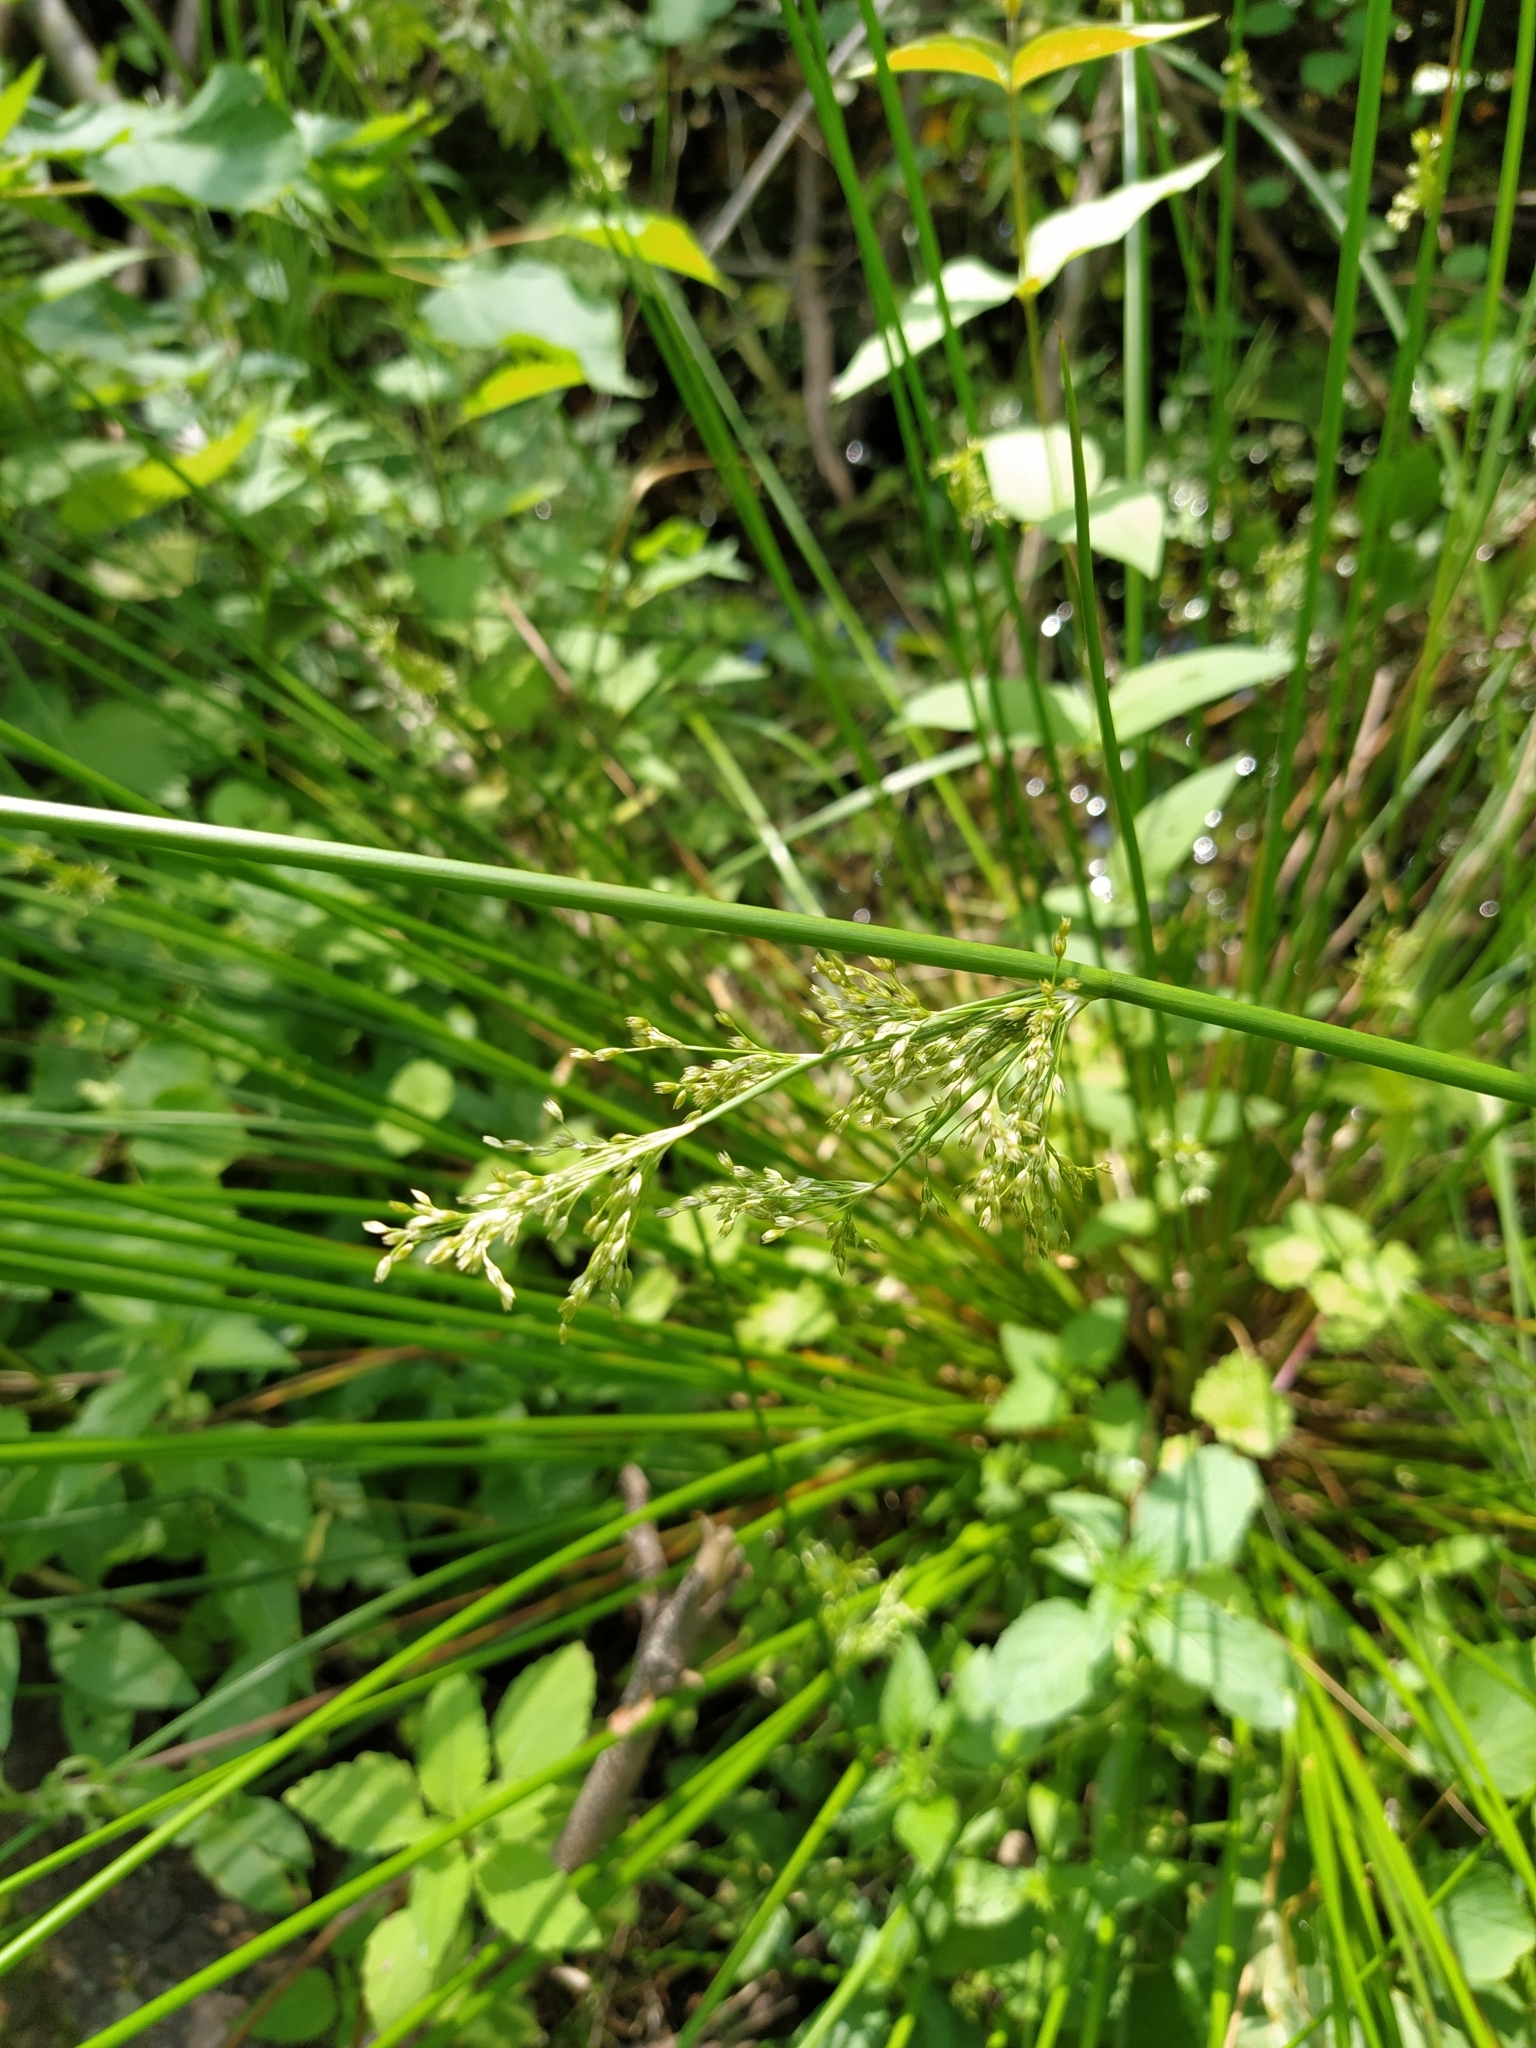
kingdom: Plantae
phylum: Tracheophyta
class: Liliopsida
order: Poales
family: Juncaceae
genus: Juncus
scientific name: Juncus effusus
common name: Soft rush
